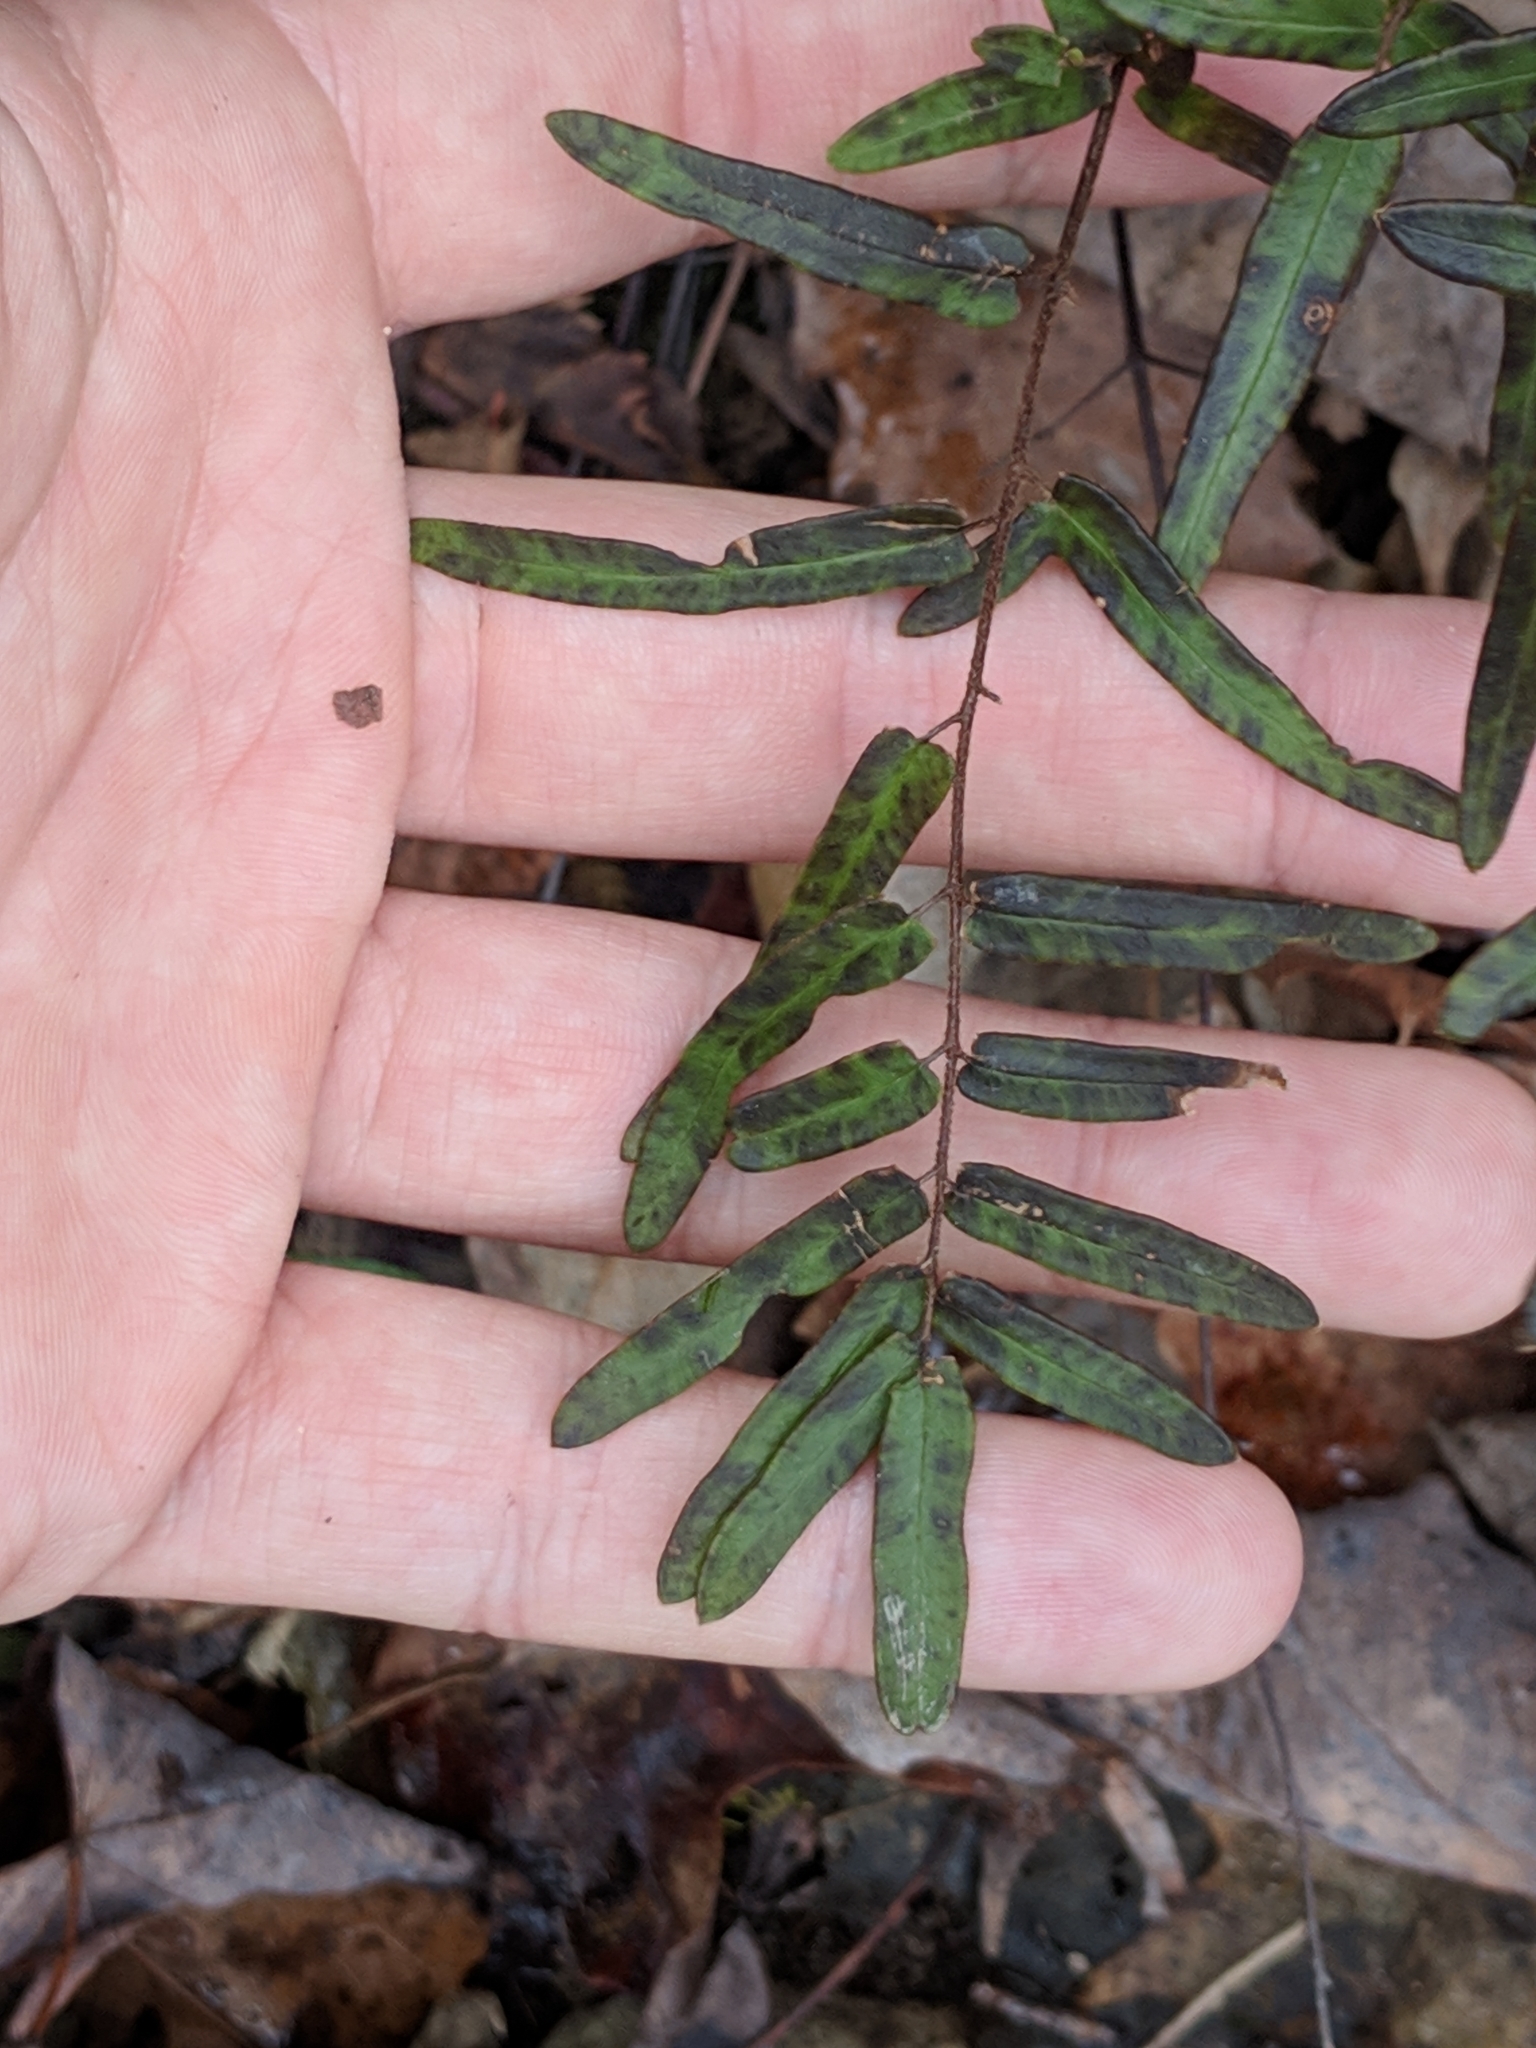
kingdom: Plantae
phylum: Tracheophyta
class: Polypodiopsida
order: Polypodiales
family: Pteridaceae
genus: Pellaea
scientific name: Pellaea atropurpurea
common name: Hairy cliffbrake
